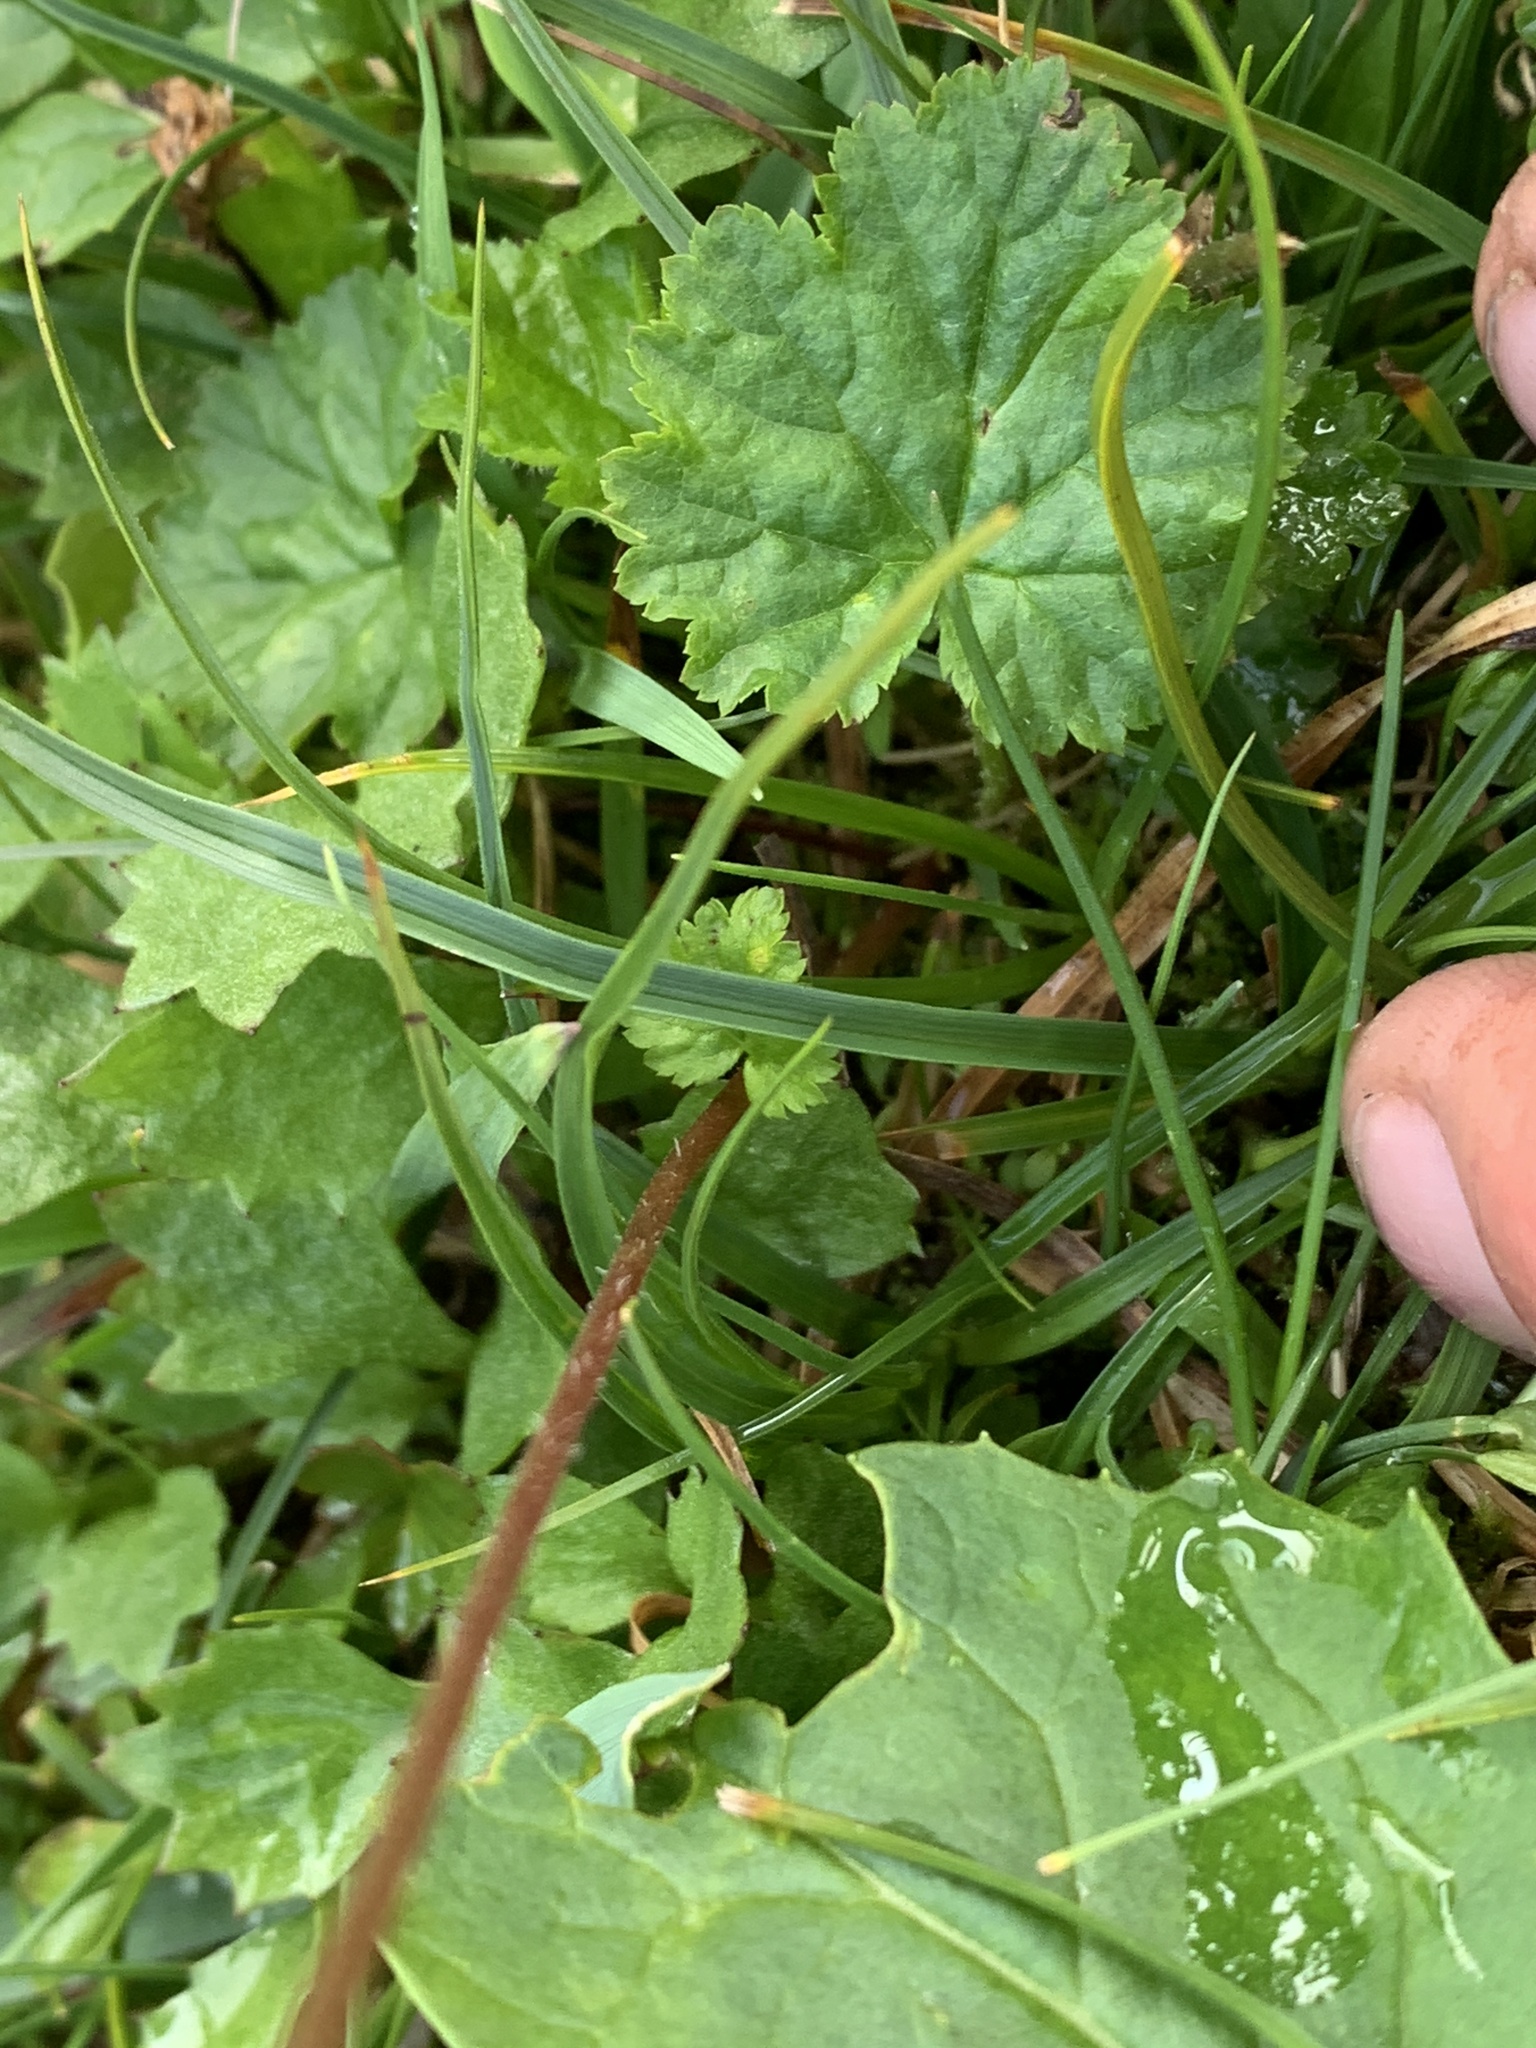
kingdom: Plantae
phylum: Tracheophyta
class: Magnoliopsida
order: Saxifragales
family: Saxifragaceae
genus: Pectiantia
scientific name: Pectiantia pentandra
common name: Alpine bishop's-cap
